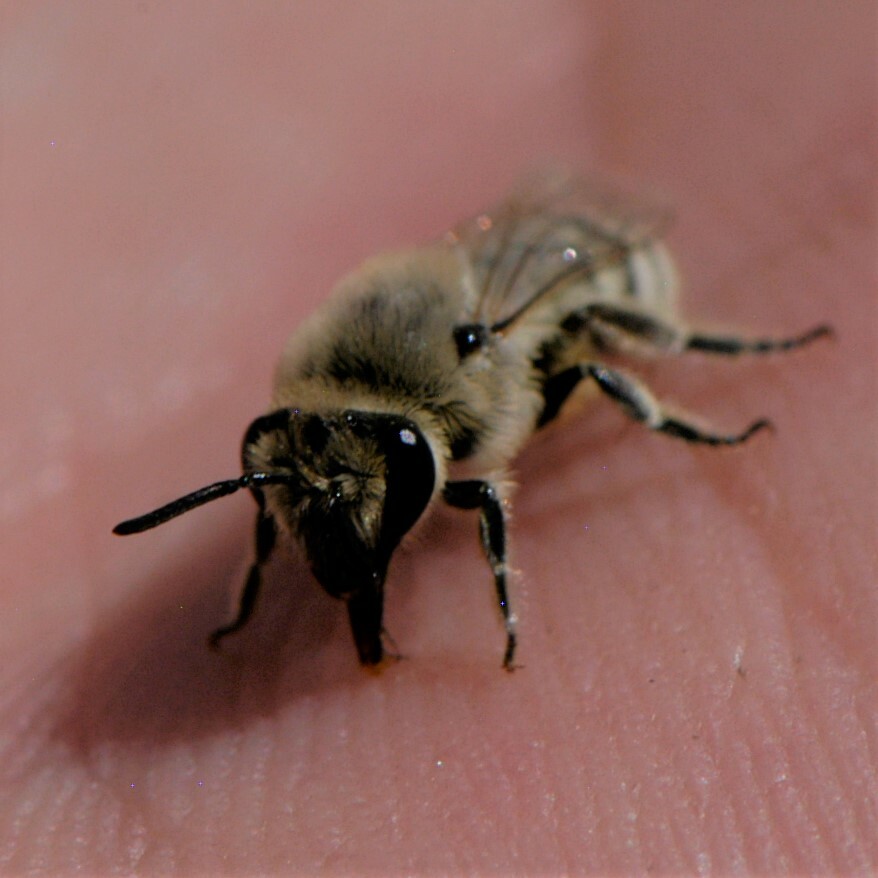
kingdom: Animalia
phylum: Arthropoda
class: Insecta
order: Hymenoptera
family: Colletidae
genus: Colletes
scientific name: Colletes
